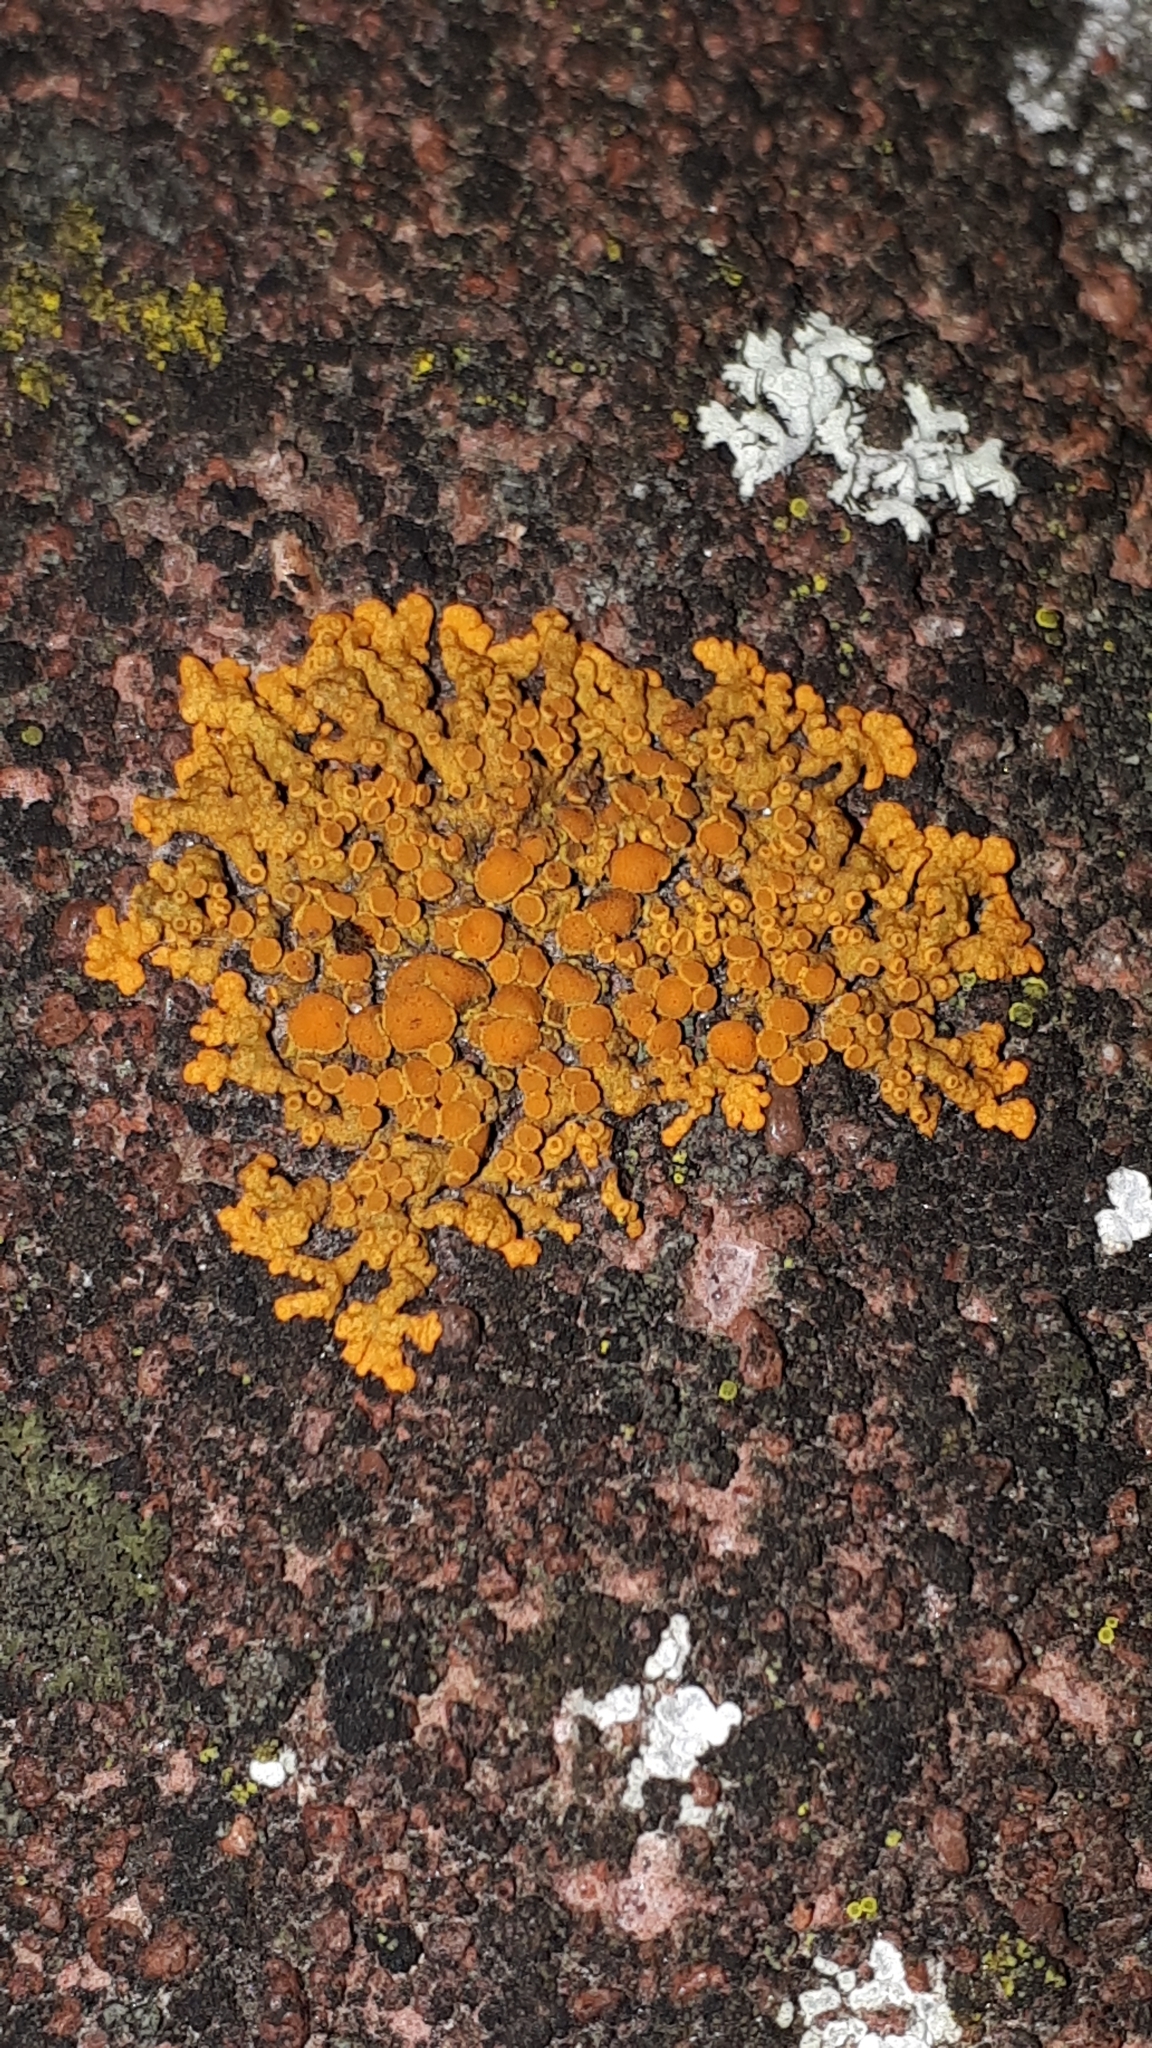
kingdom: Fungi
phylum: Ascomycota
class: Lecanoromycetes
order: Teloschistales
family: Teloschistaceae
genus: Xanthoria
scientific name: Xanthoria elegans
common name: Elegant sunburst lichen
